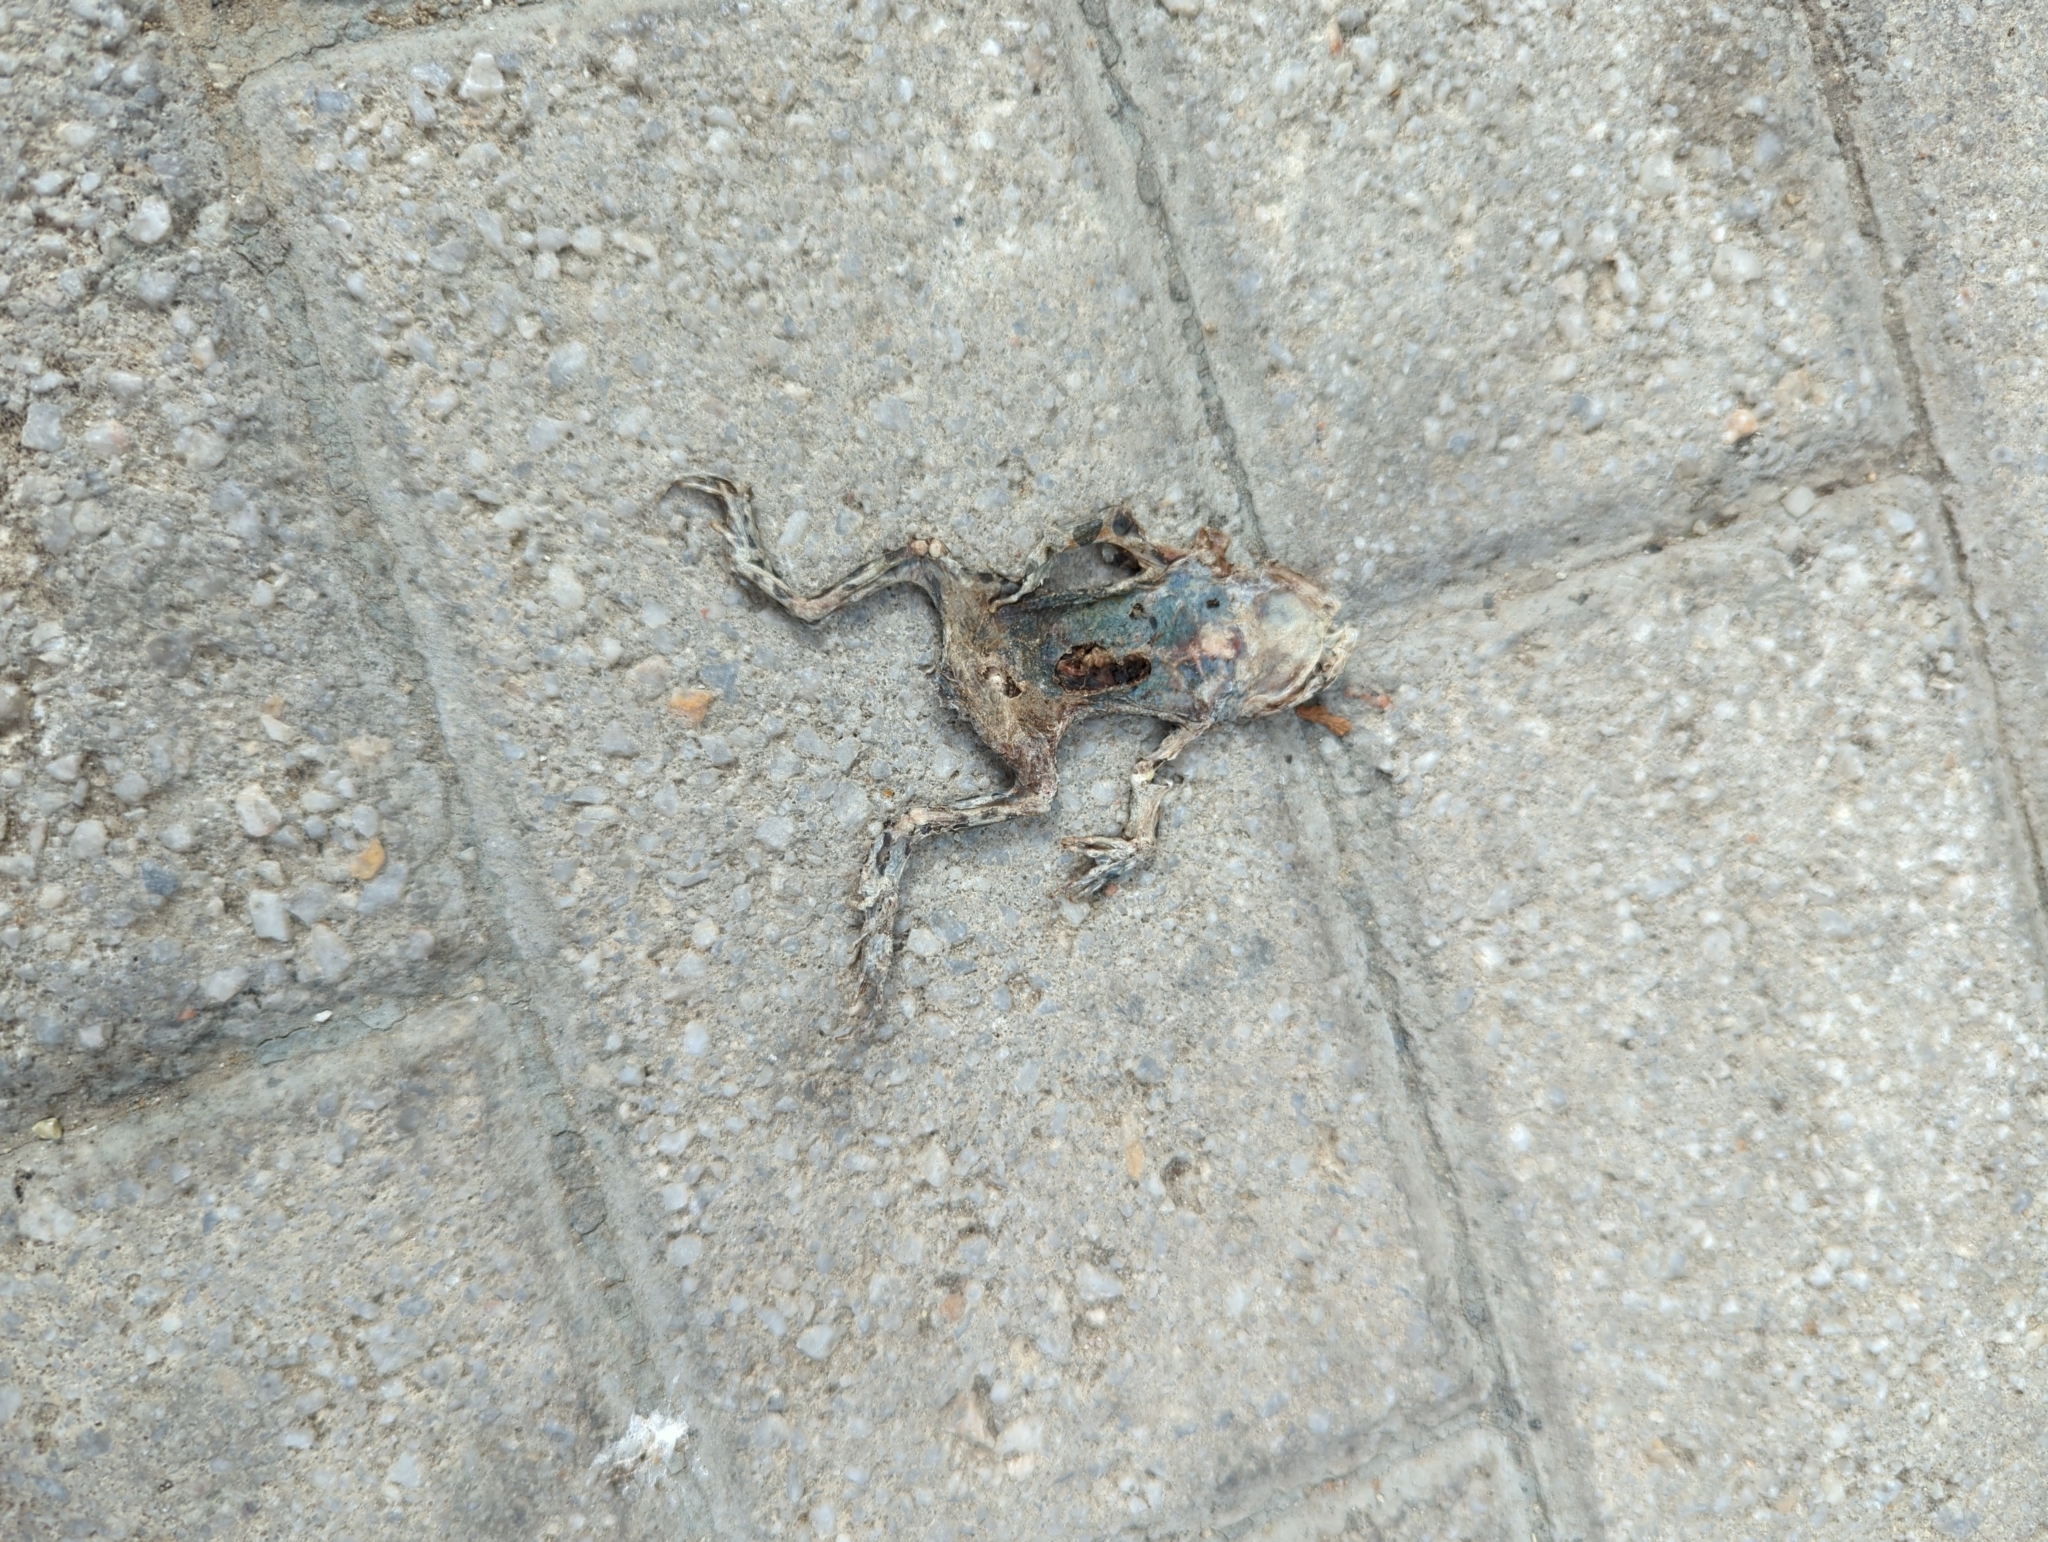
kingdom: Animalia
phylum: Chordata
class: Amphibia
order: Anura
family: Bufonidae
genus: Bufotes
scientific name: Bufotes viridis
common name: European green toad
